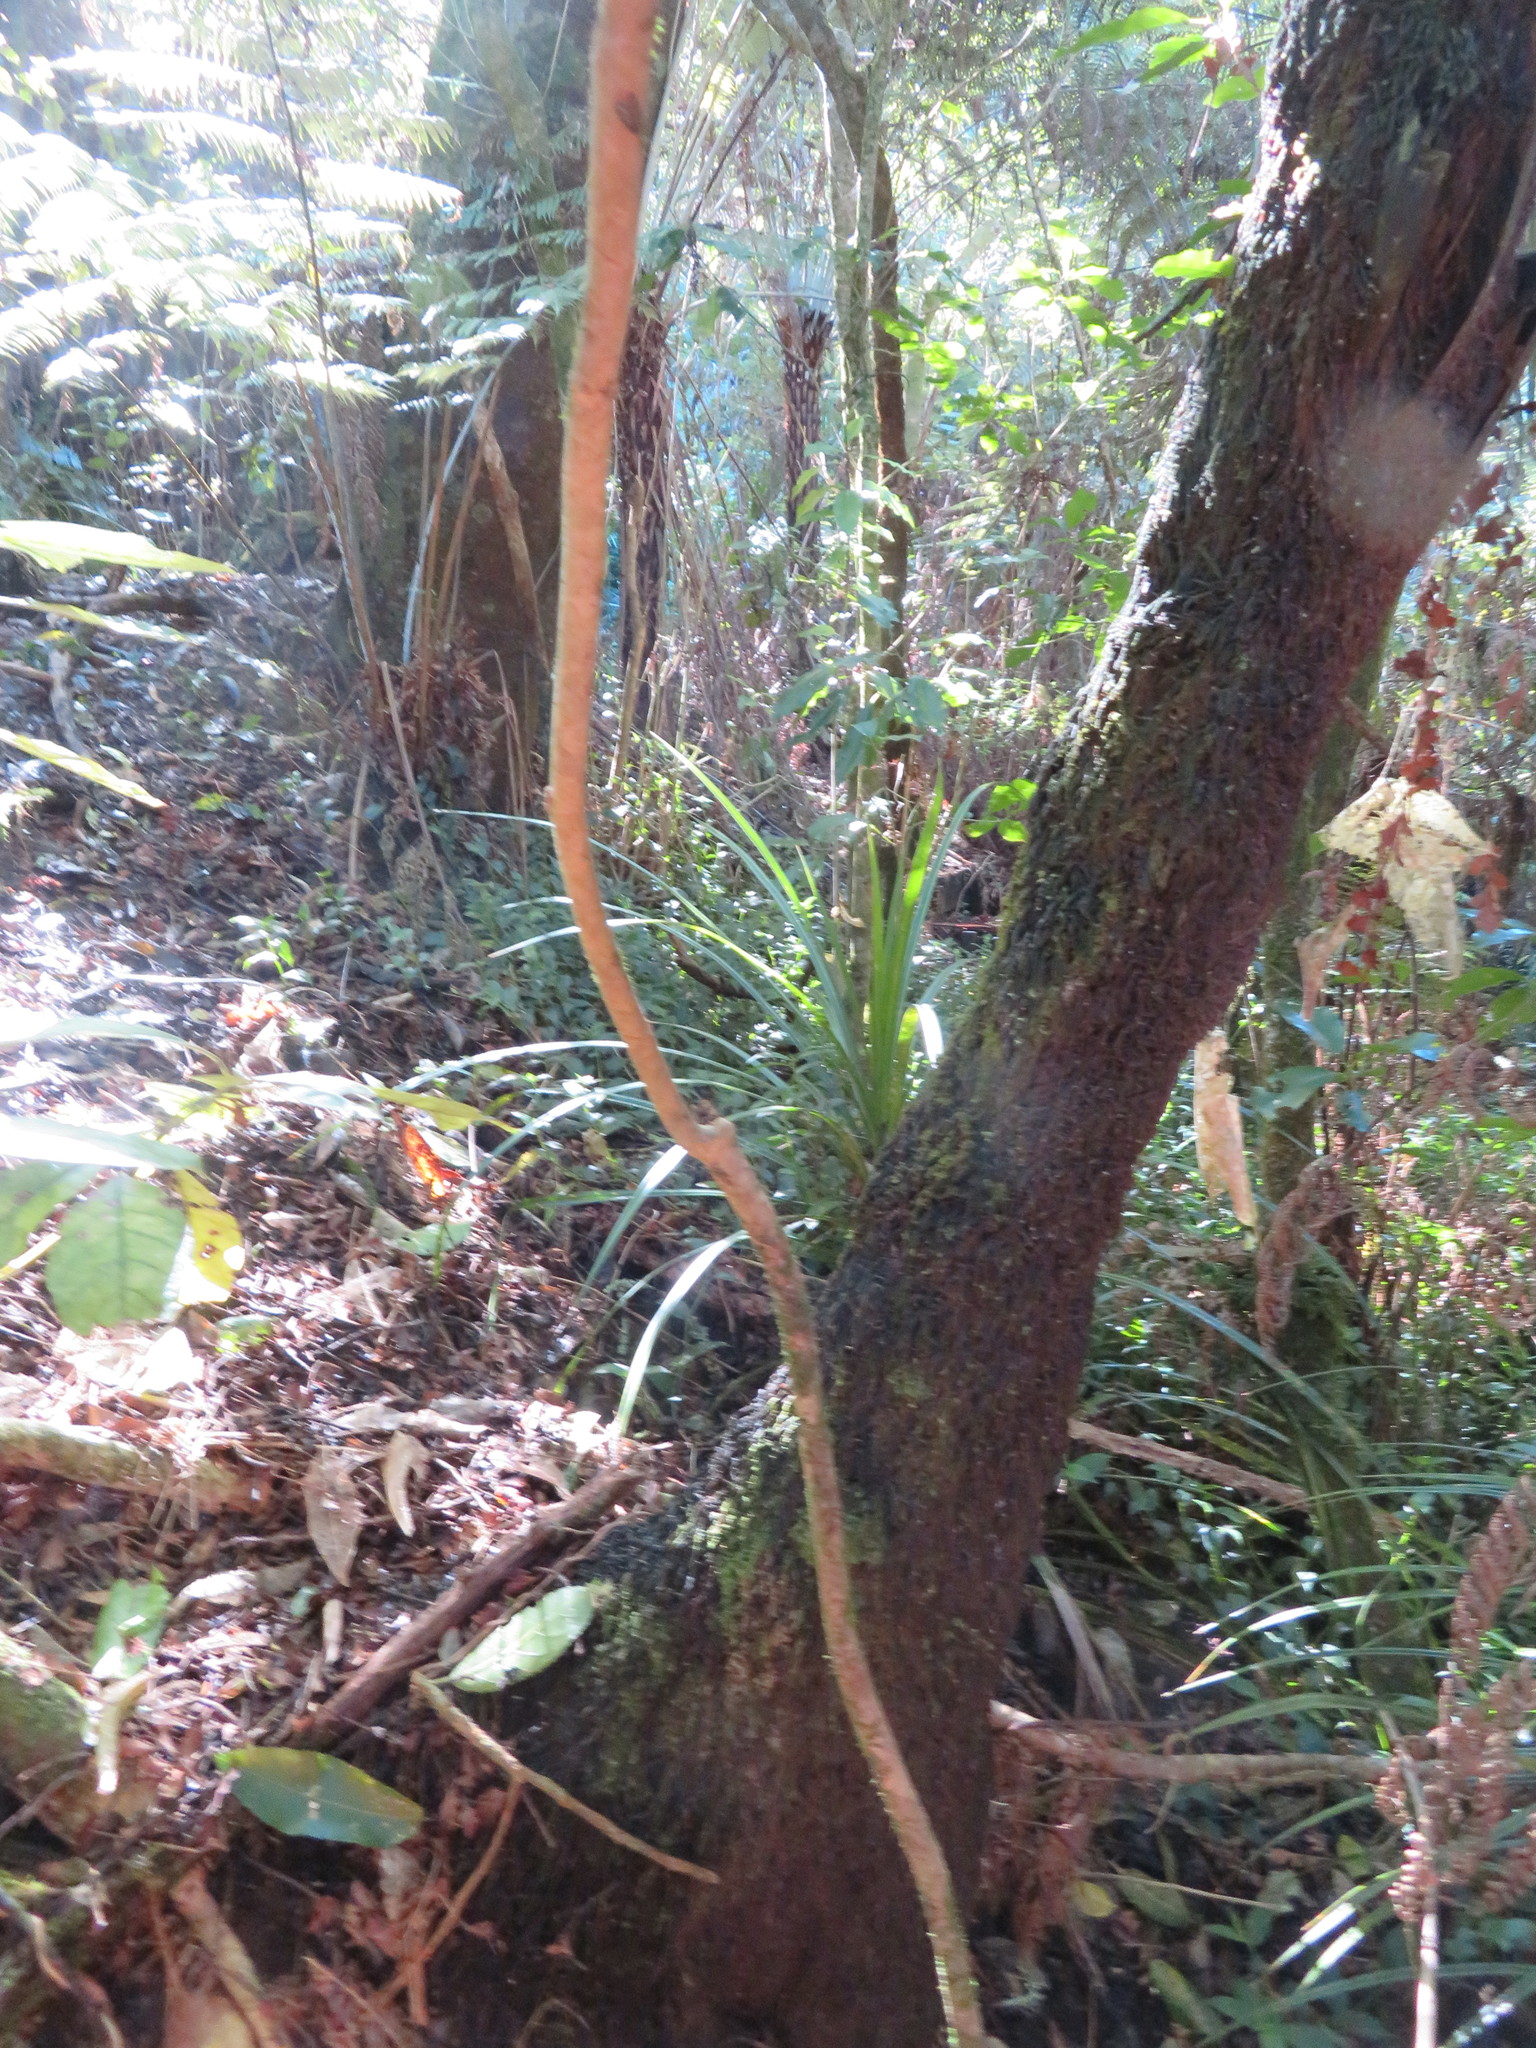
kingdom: Plantae
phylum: Tracheophyta
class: Liliopsida
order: Commelinales
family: Commelinaceae
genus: Tradescantia
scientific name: Tradescantia fluminensis
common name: Wandering-jew
